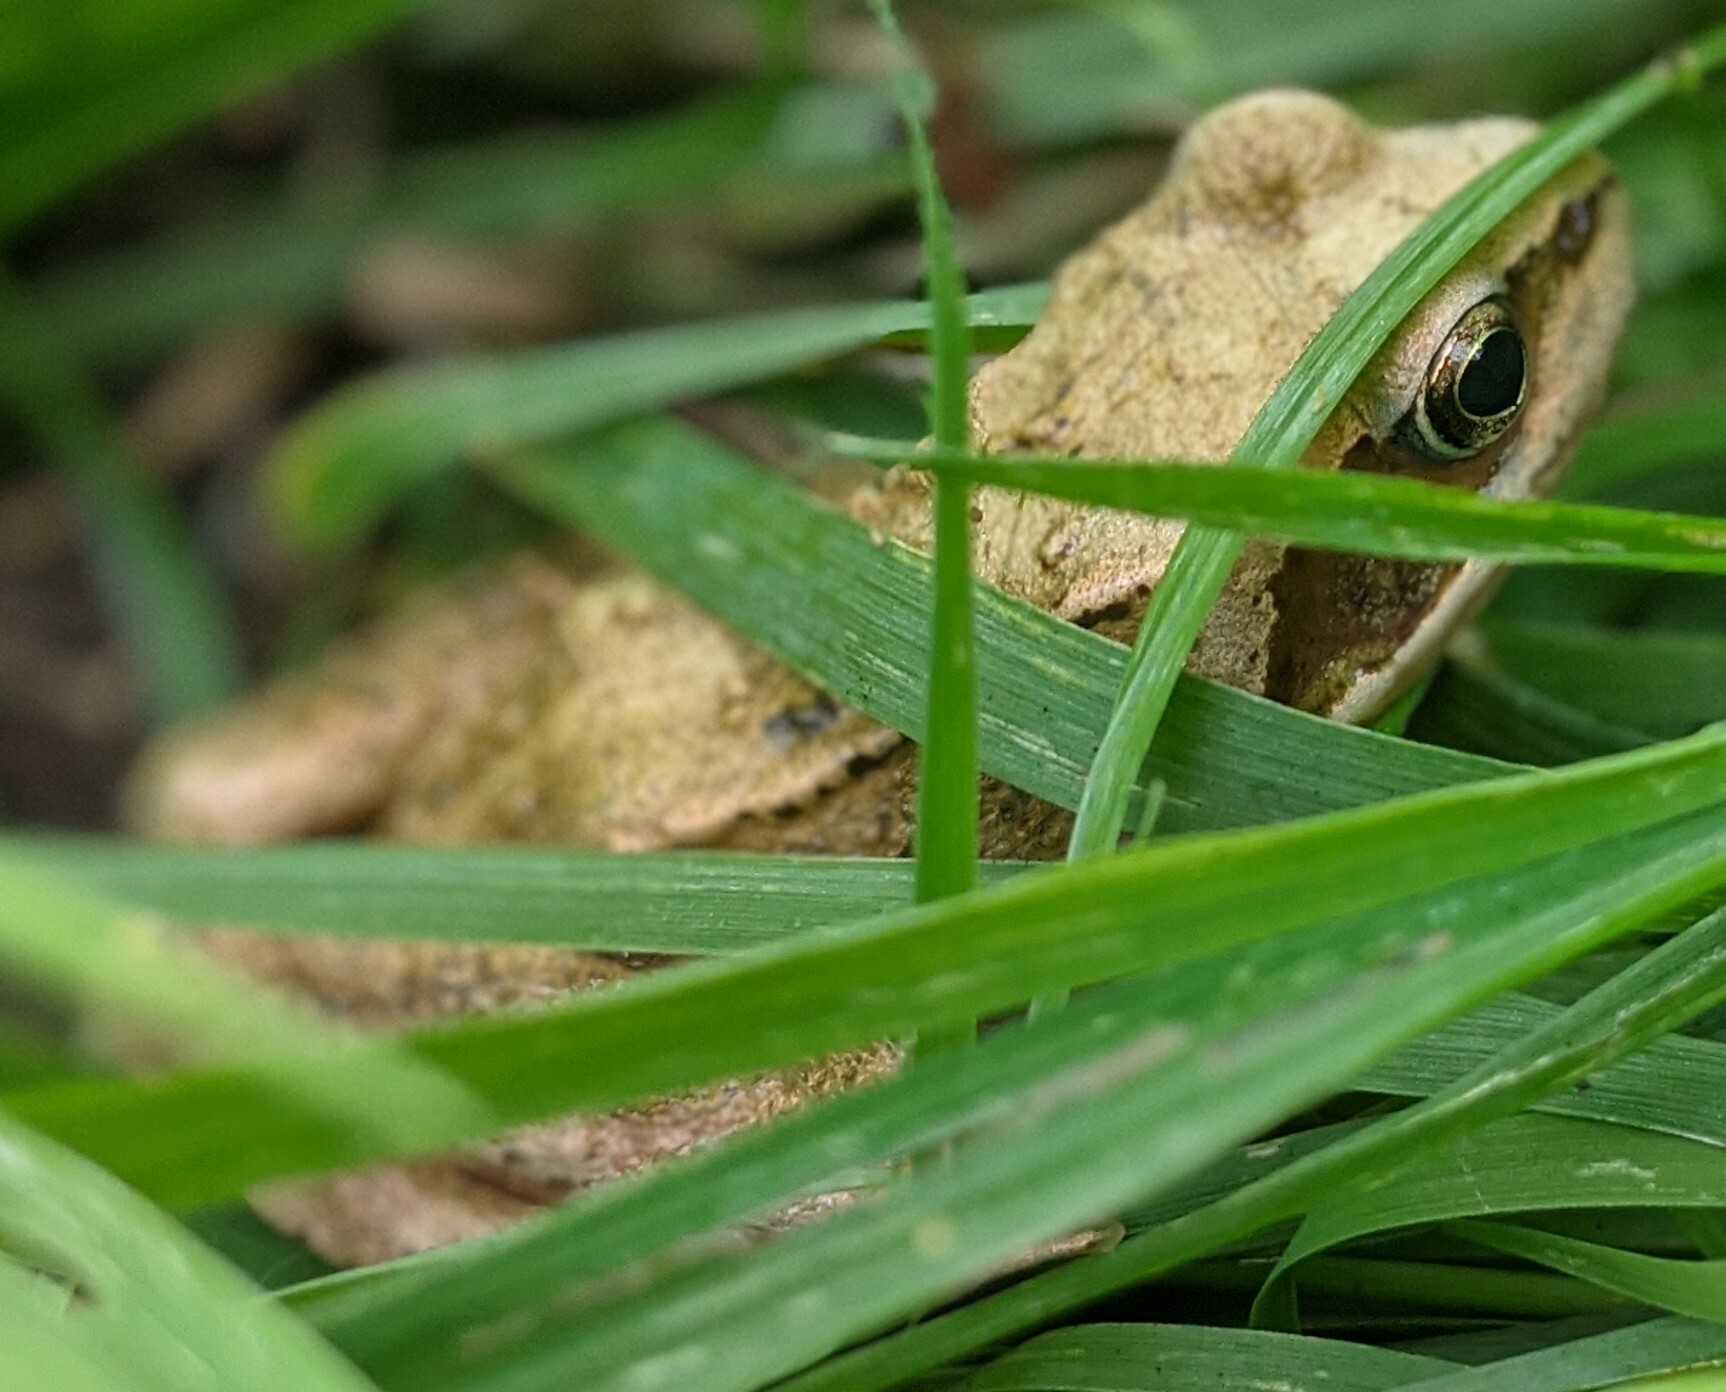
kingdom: Animalia
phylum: Chordata
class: Amphibia
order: Anura
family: Ranidae
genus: Rana
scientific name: Rana temporaria
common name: Common frog
